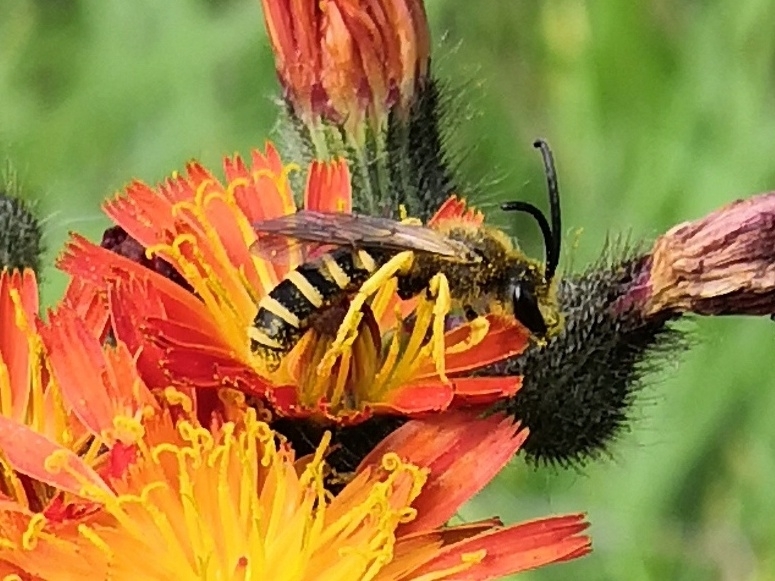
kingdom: Animalia
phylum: Arthropoda
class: Insecta
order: Hymenoptera
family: Halictidae
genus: Halictus
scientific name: Halictus scabiosae
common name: Great banded furrow bee
